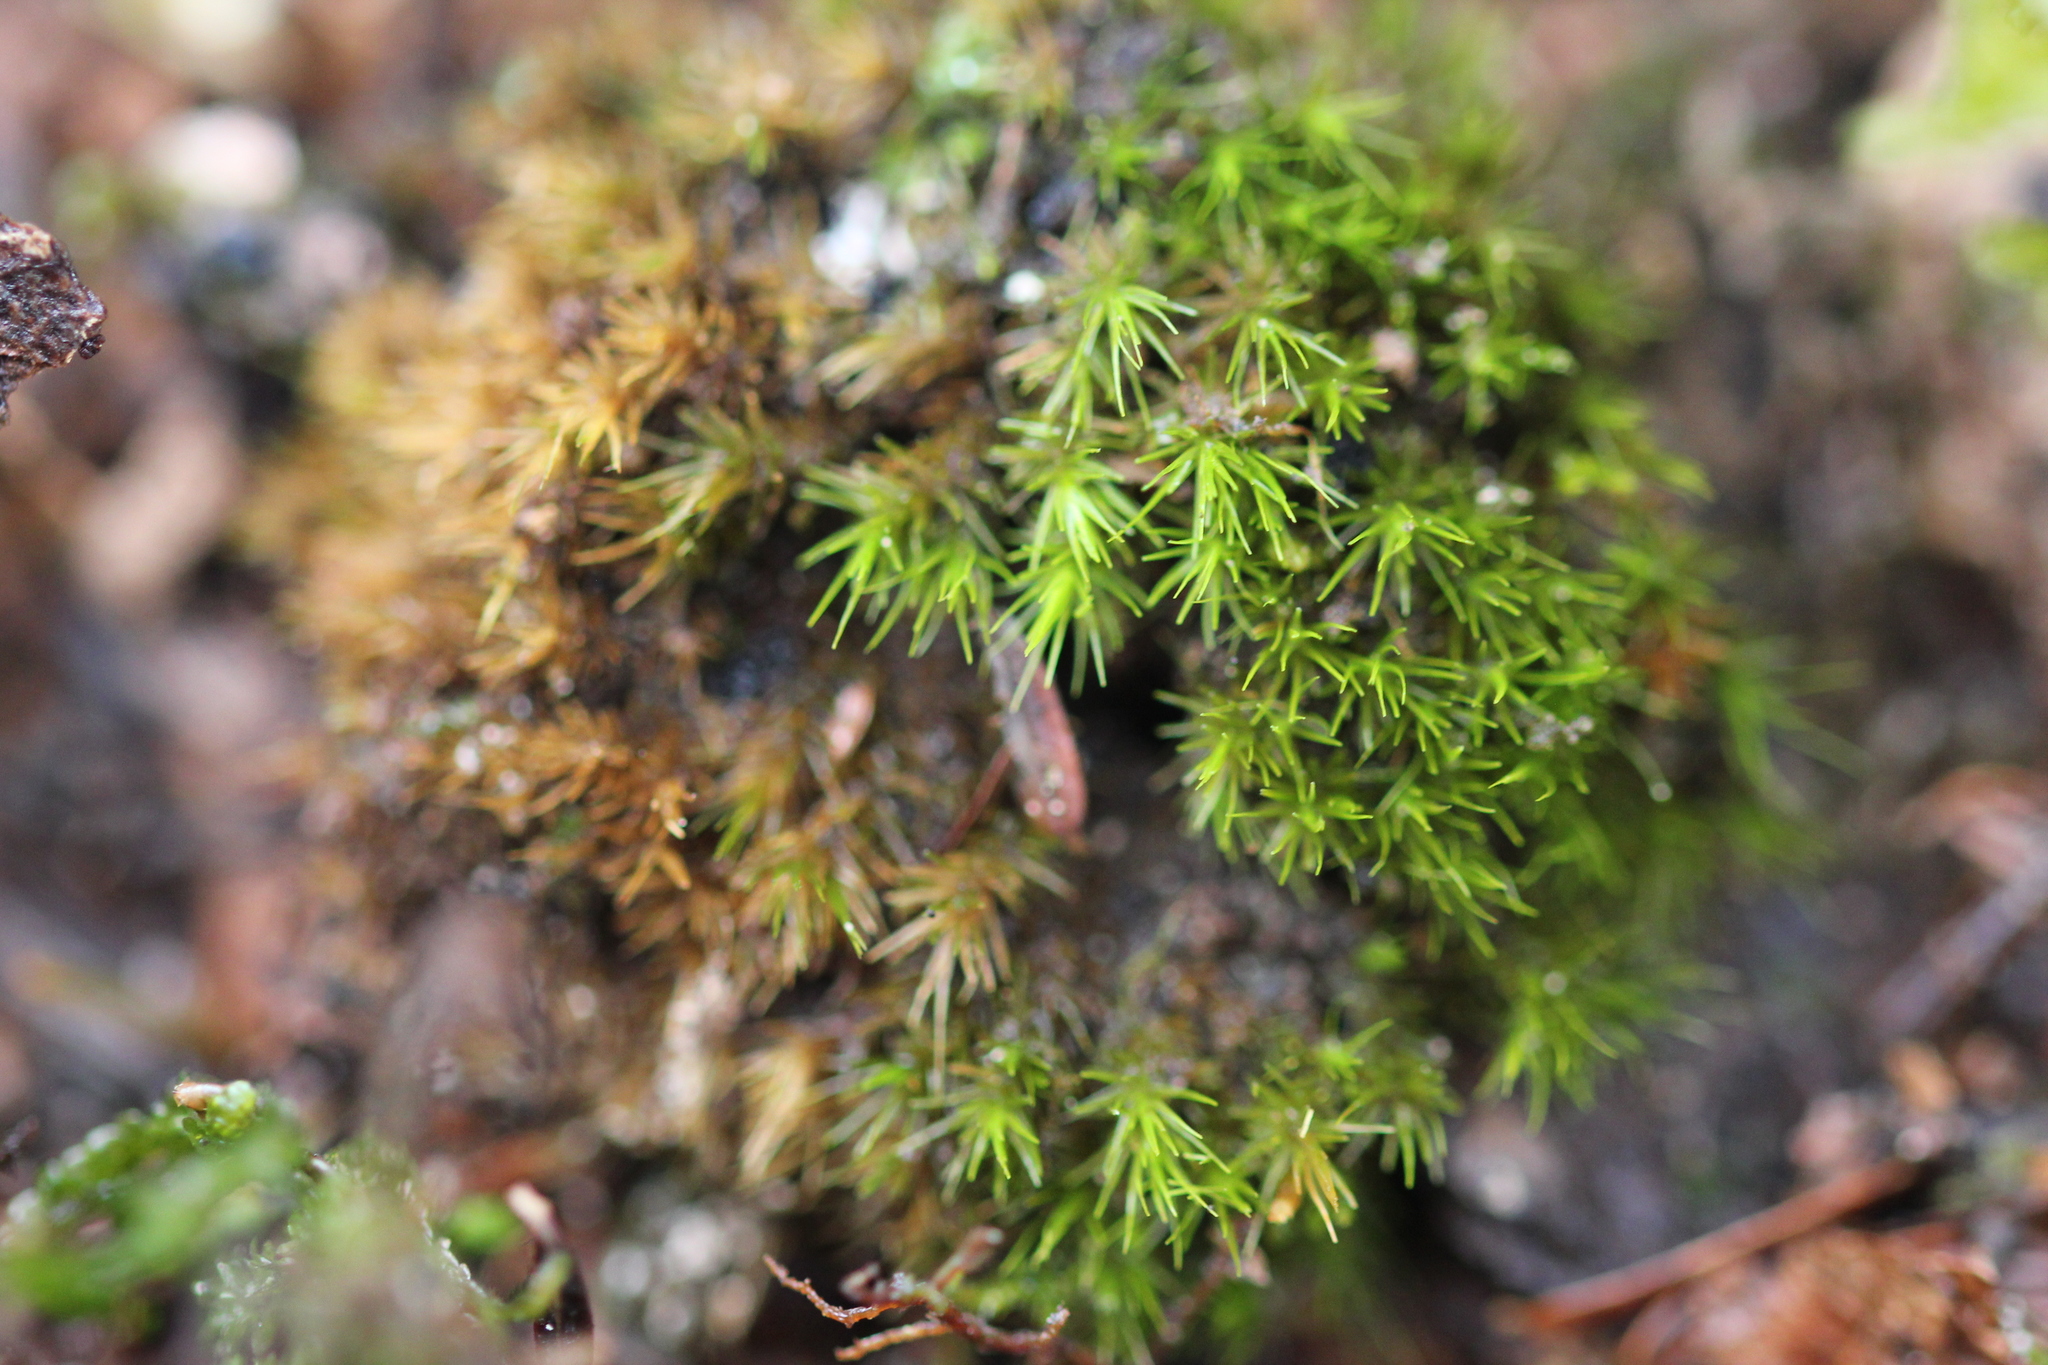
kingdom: Plantae
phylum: Bryophyta
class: Bryopsida
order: Dicranales
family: Dicranaceae
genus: Dicranum
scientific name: Dicranum viride
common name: Green broom moss
